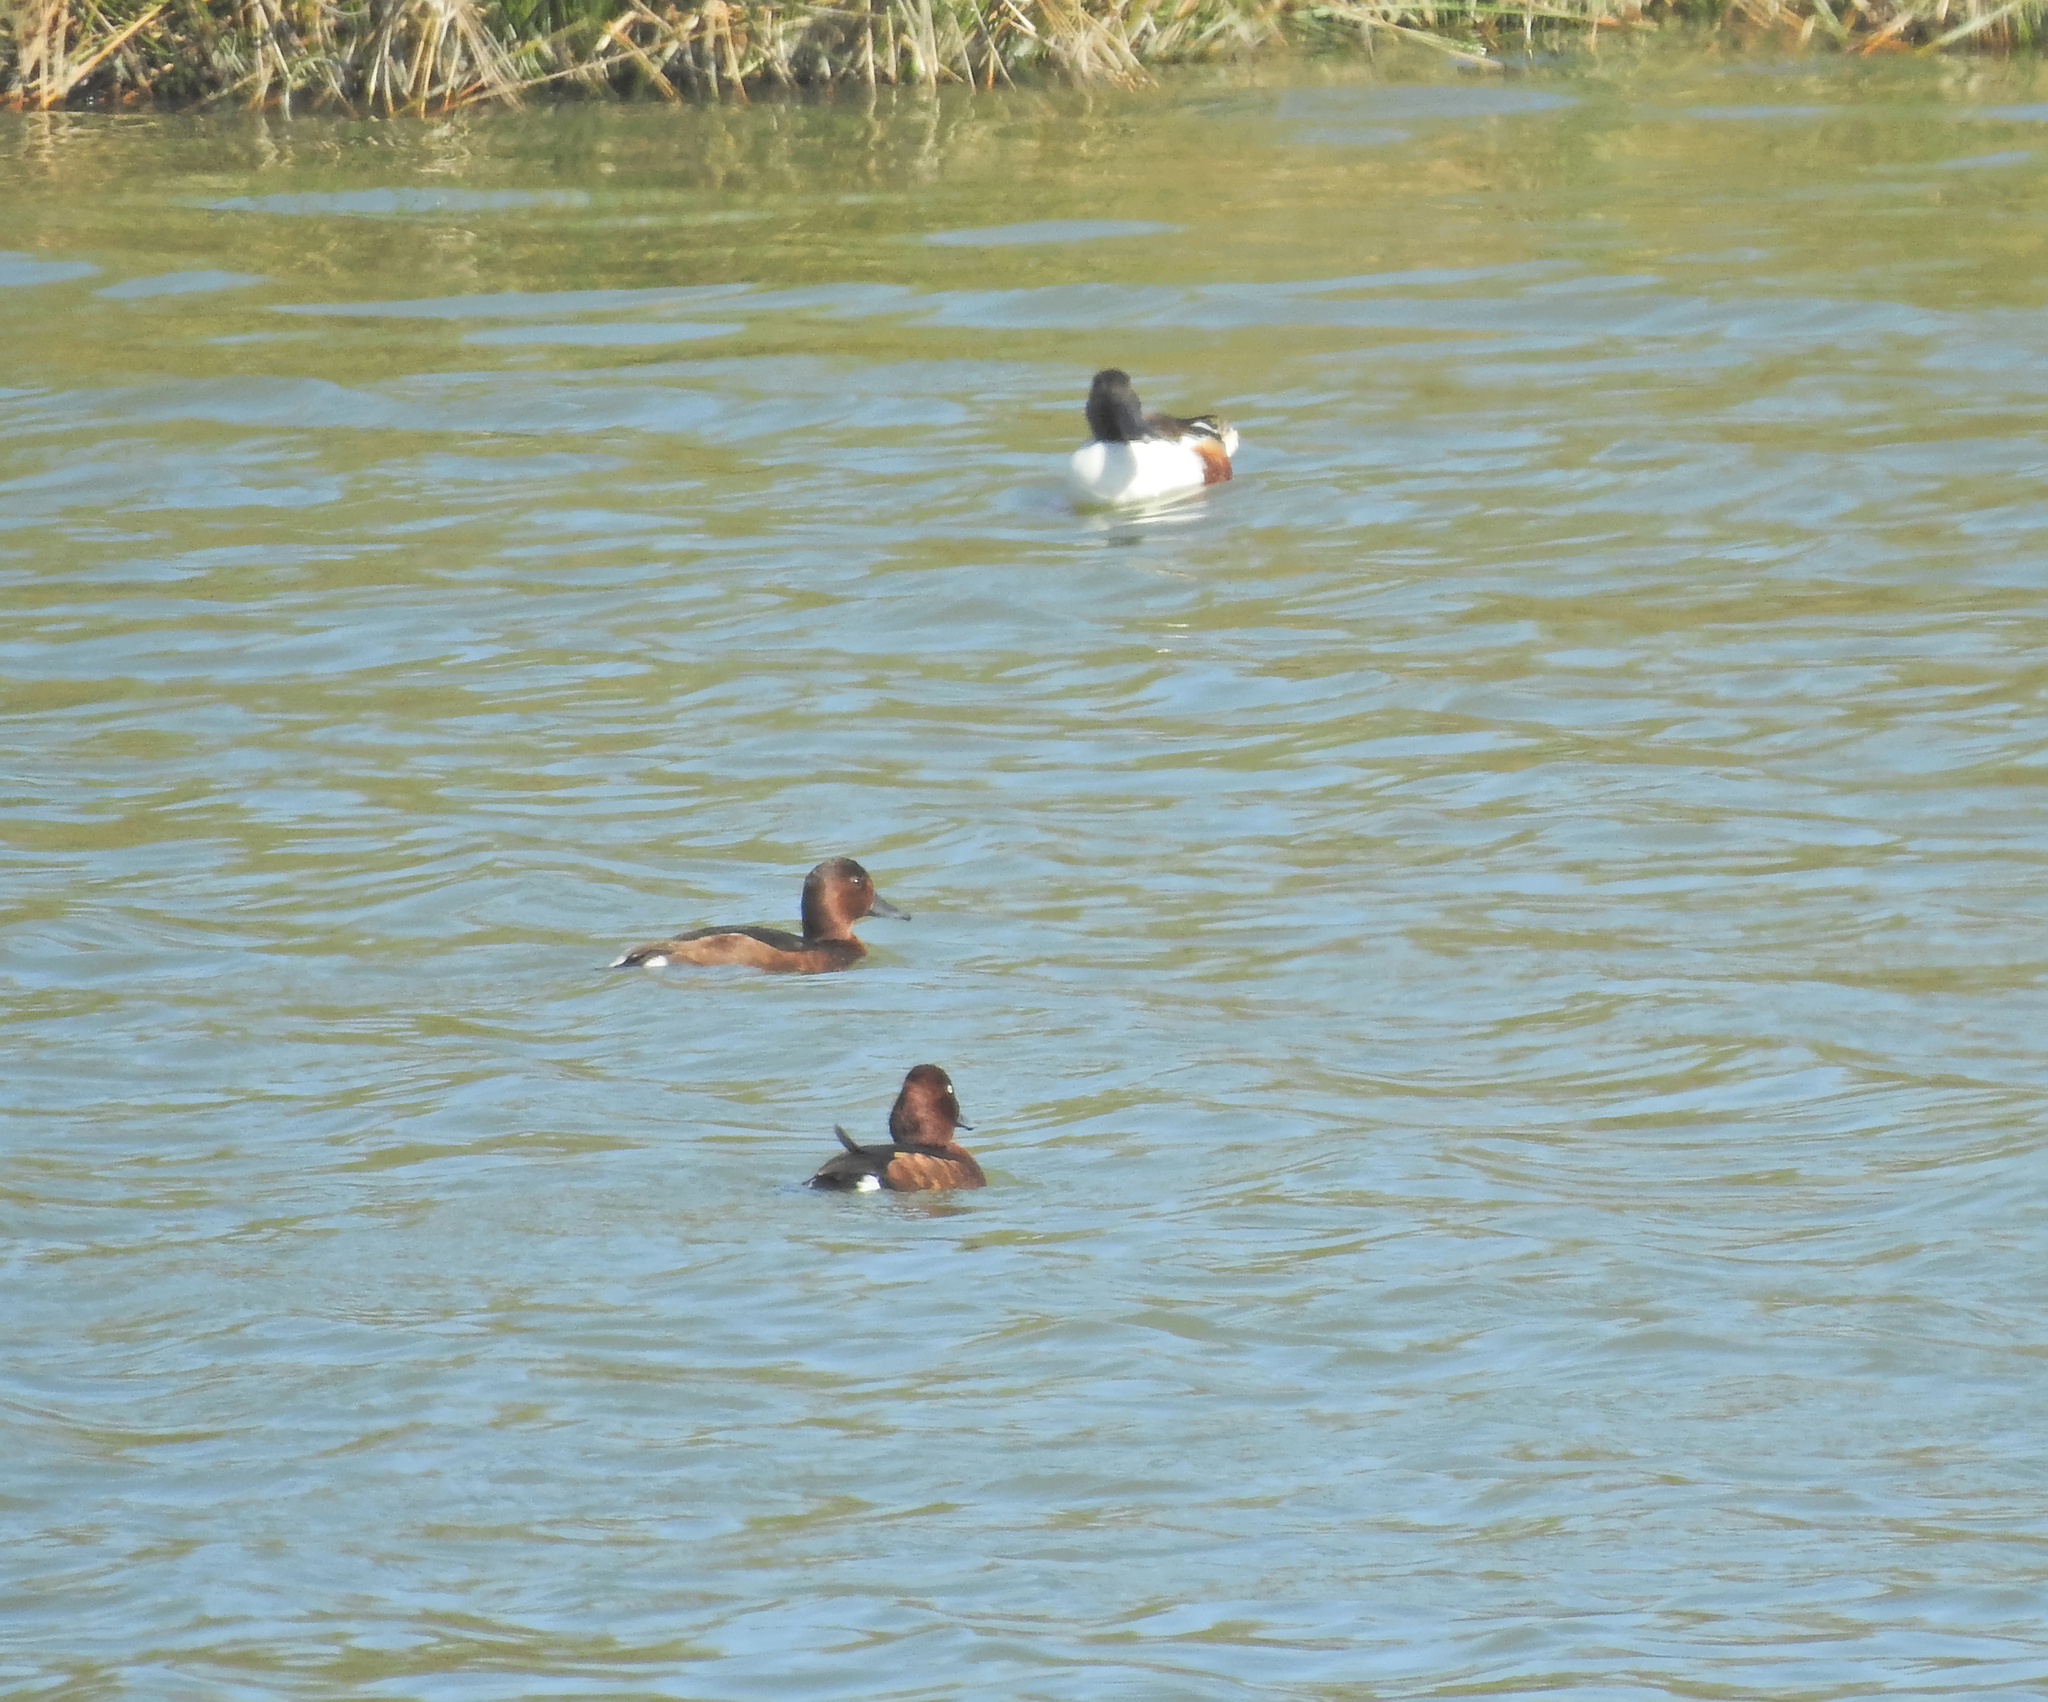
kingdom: Animalia
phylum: Chordata
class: Aves
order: Anseriformes
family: Anatidae
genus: Aythya
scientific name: Aythya nyroca
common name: Ferruginous duck
